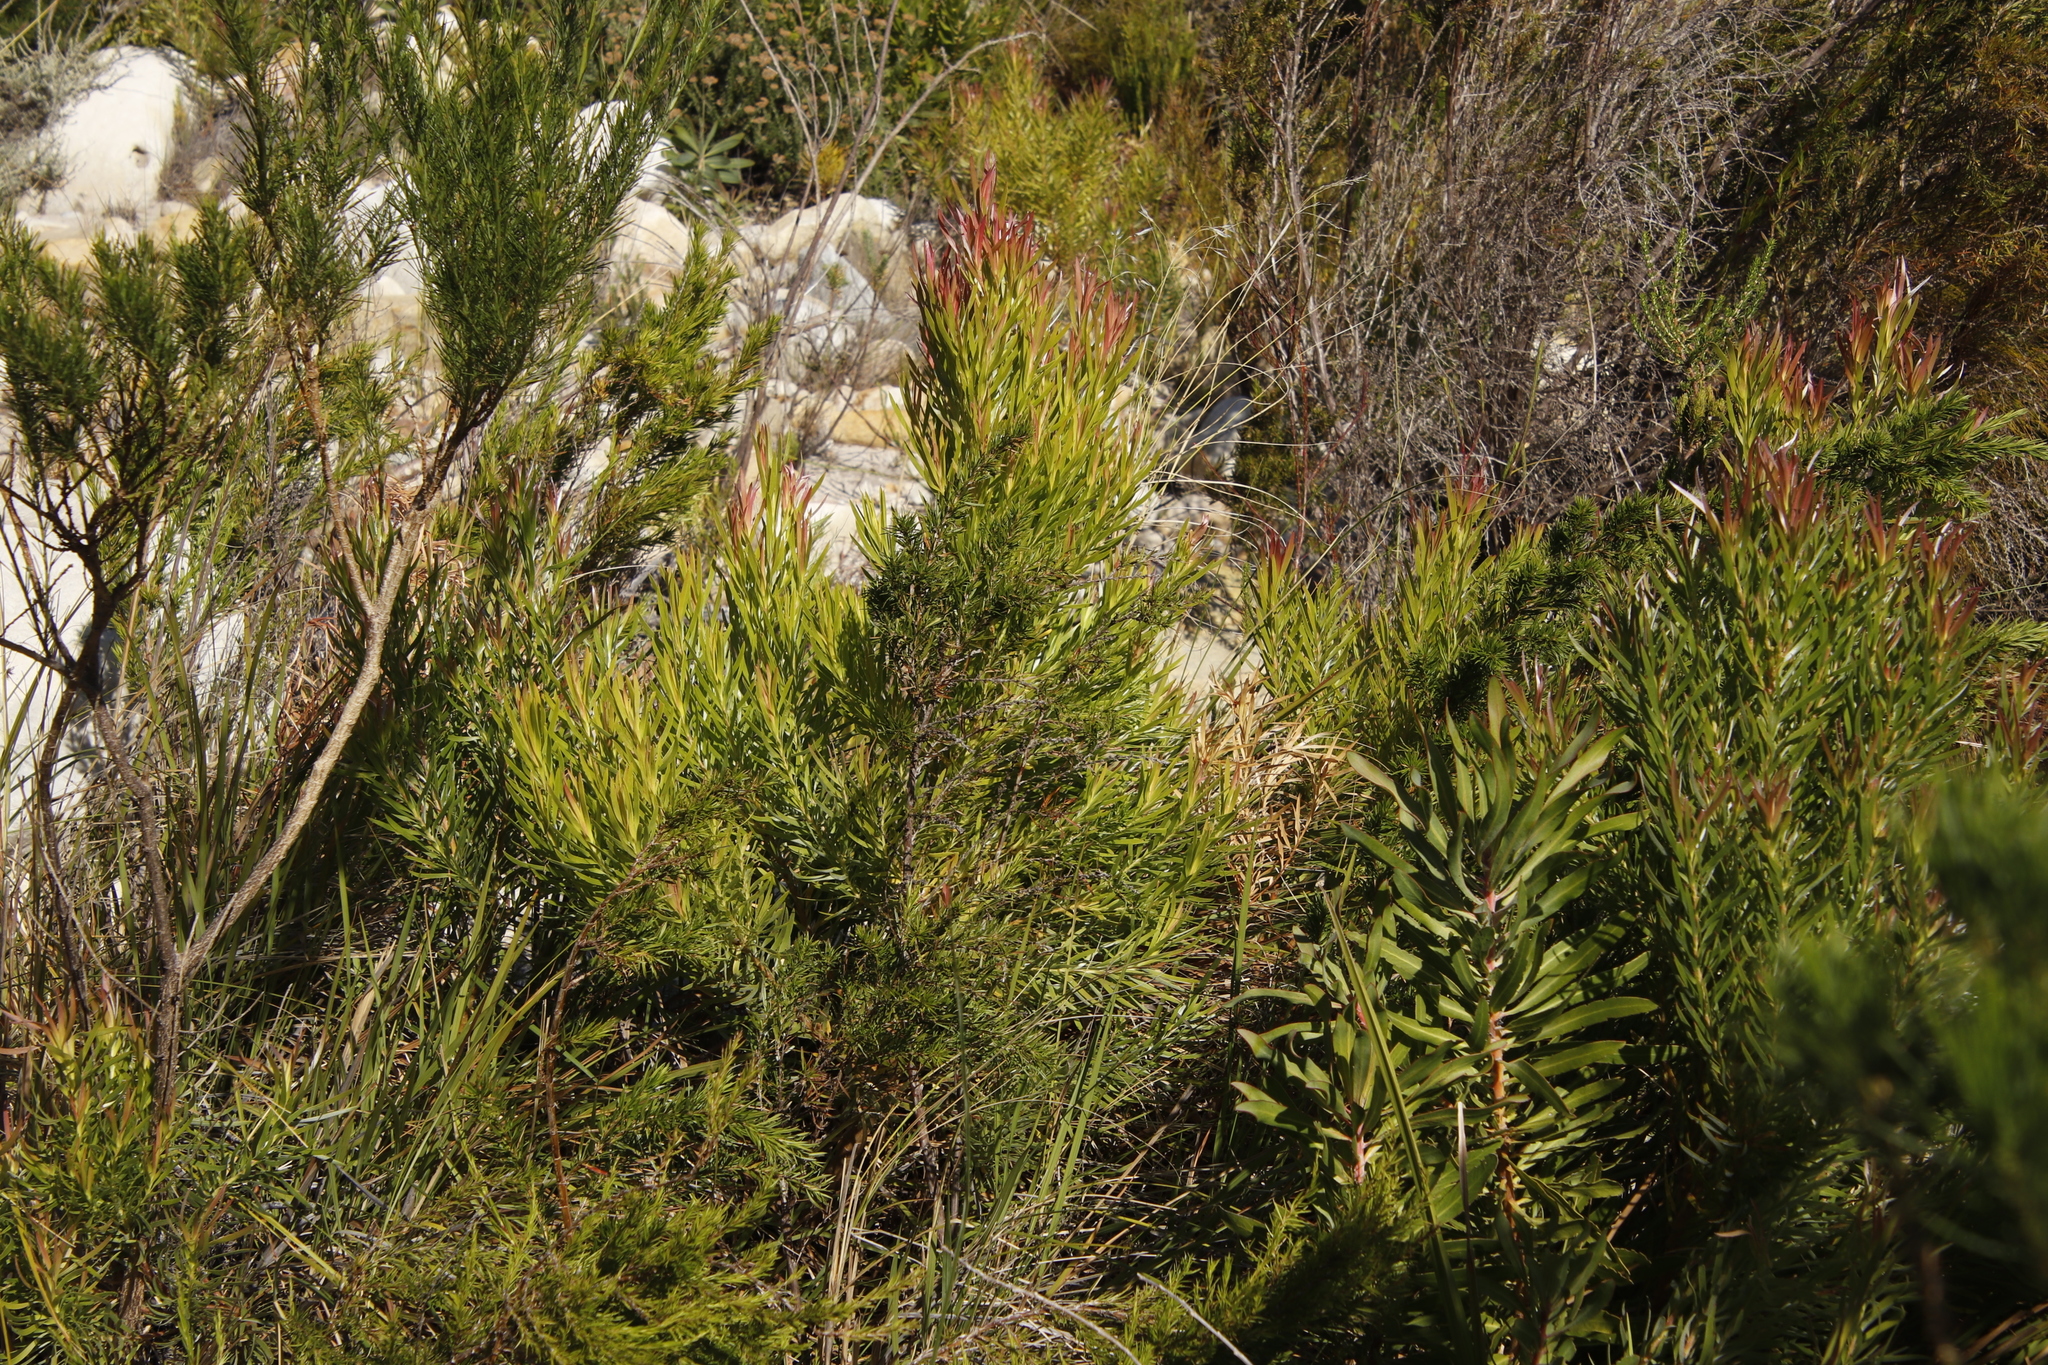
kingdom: Plantae
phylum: Tracheophyta
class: Magnoliopsida
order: Proteales
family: Proteaceae
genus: Leucadendron
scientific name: Leucadendron xanthoconus
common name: Sickle-leaf conebush
